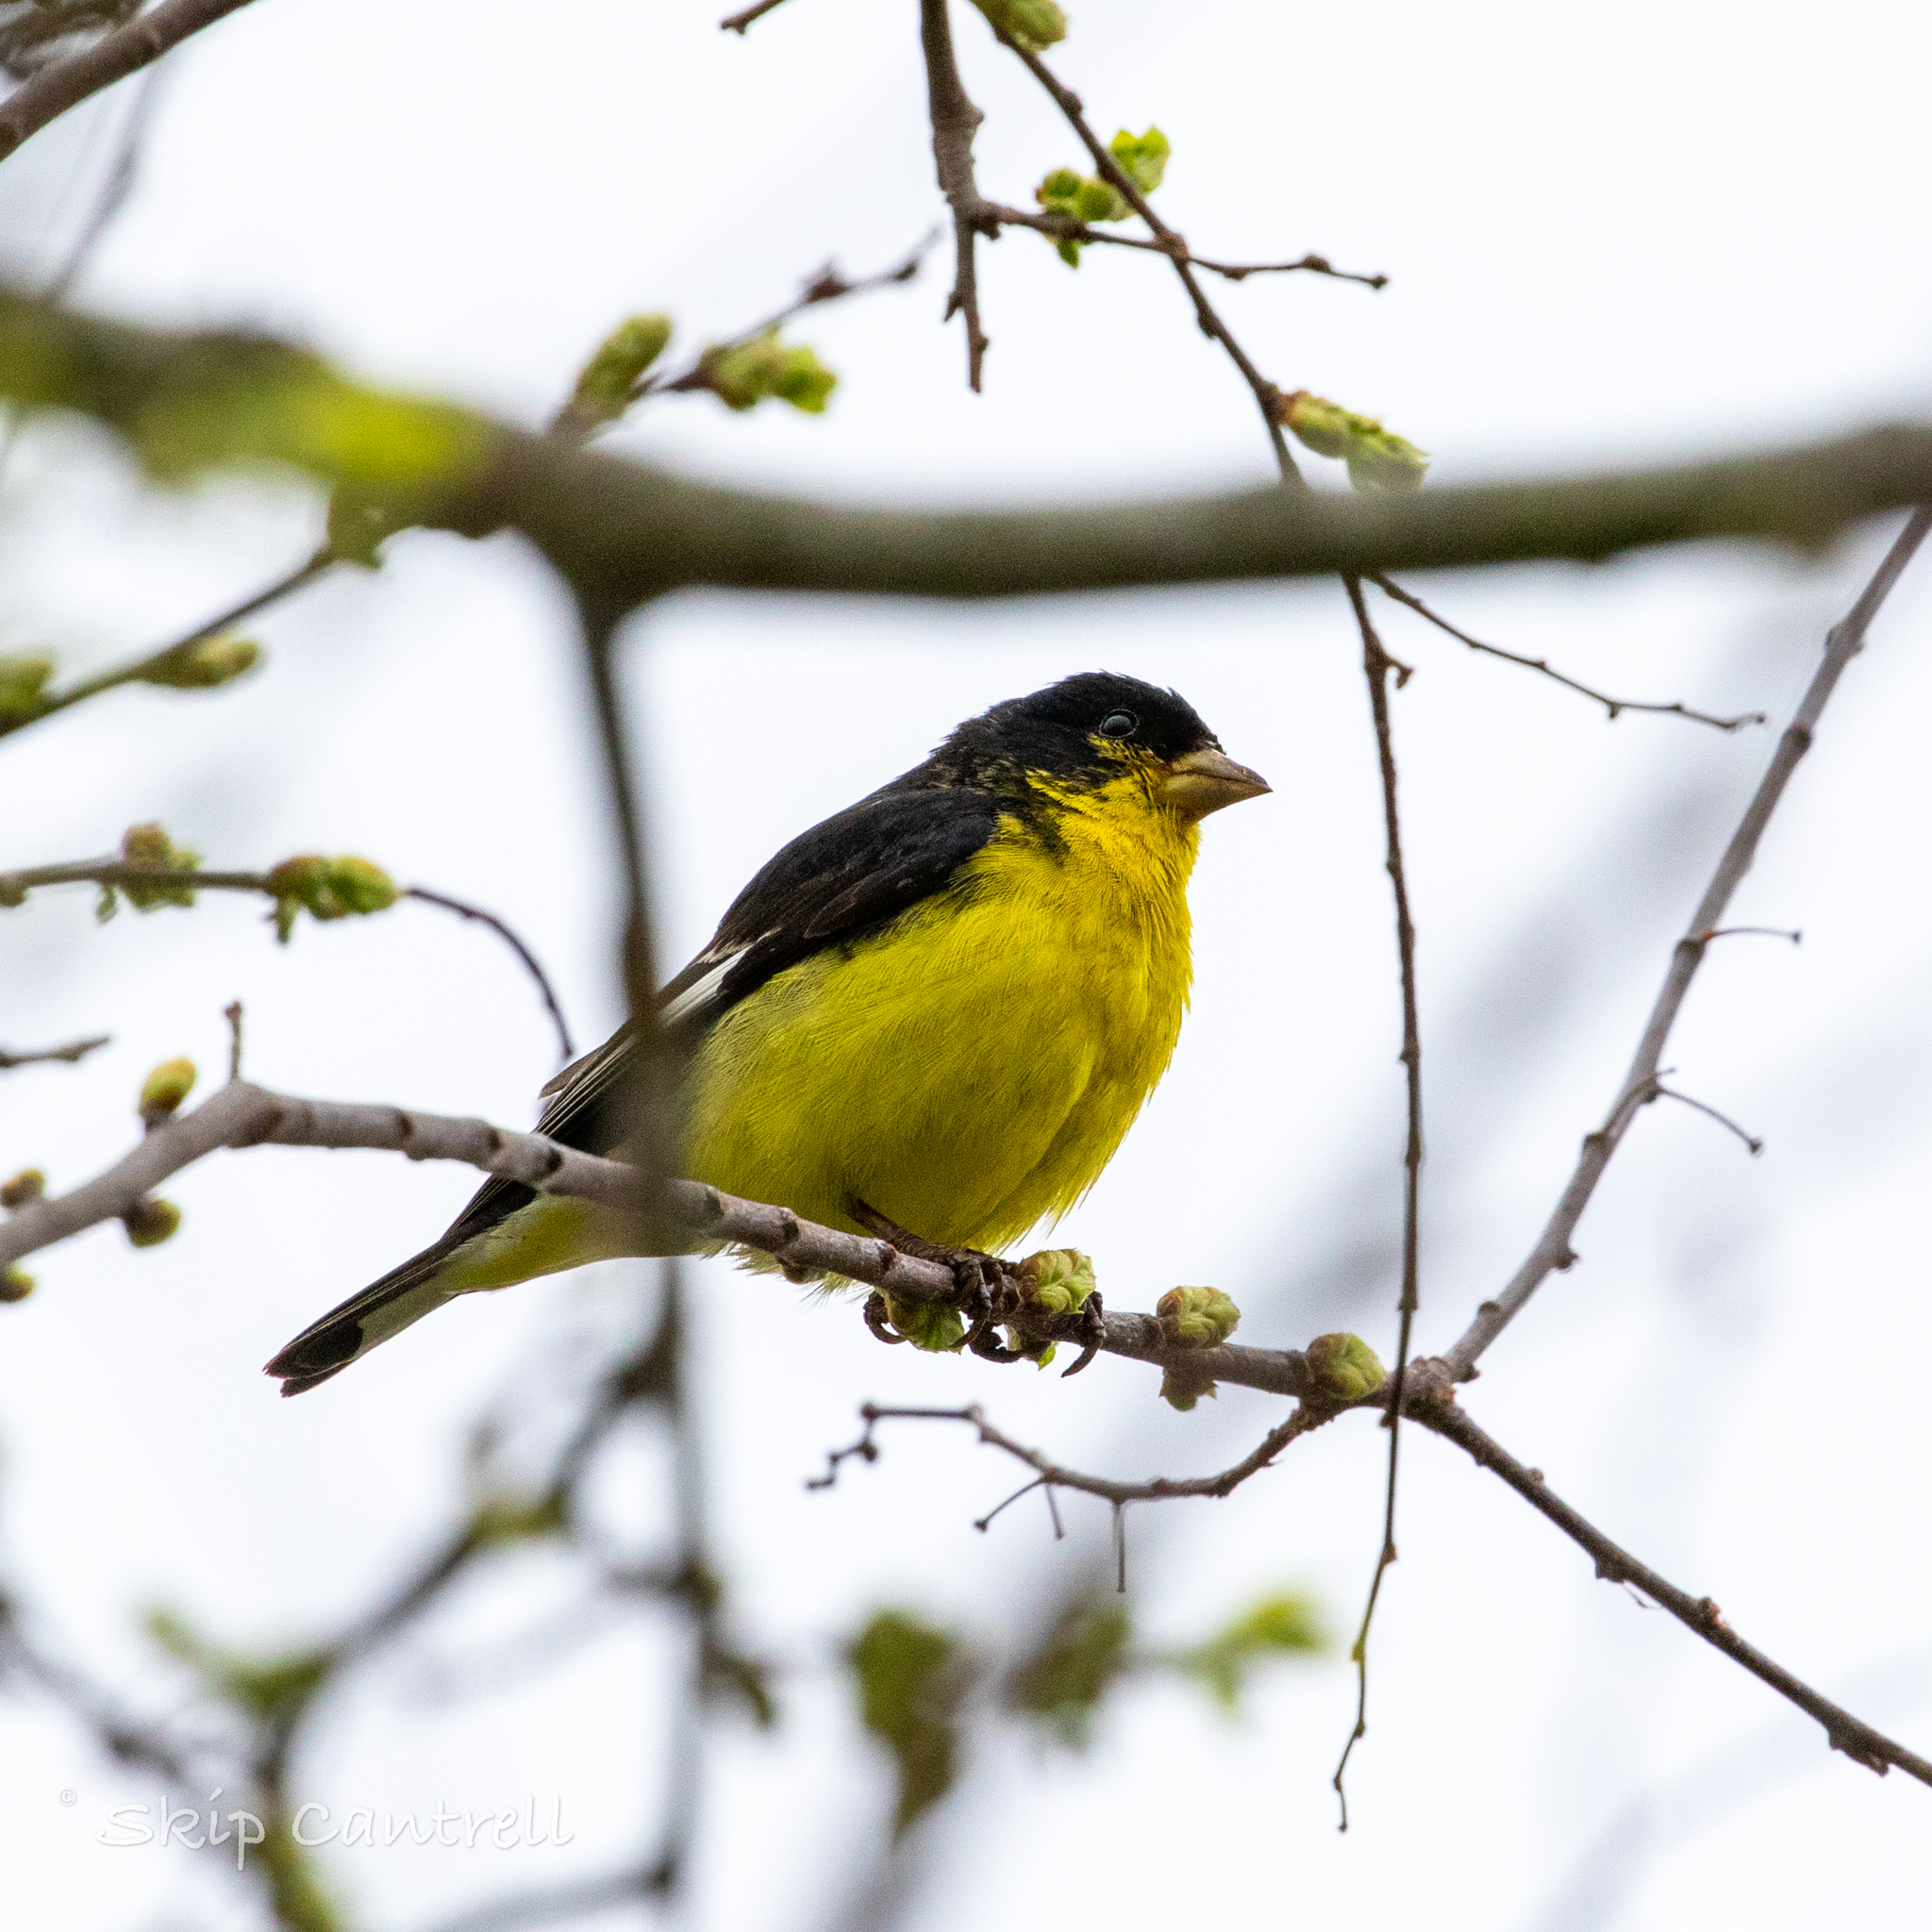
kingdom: Animalia
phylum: Chordata
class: Aves
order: Passeriformes
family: Fringillidae
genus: Spinus
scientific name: Spinus psaltria
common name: Lesser goldfinch
